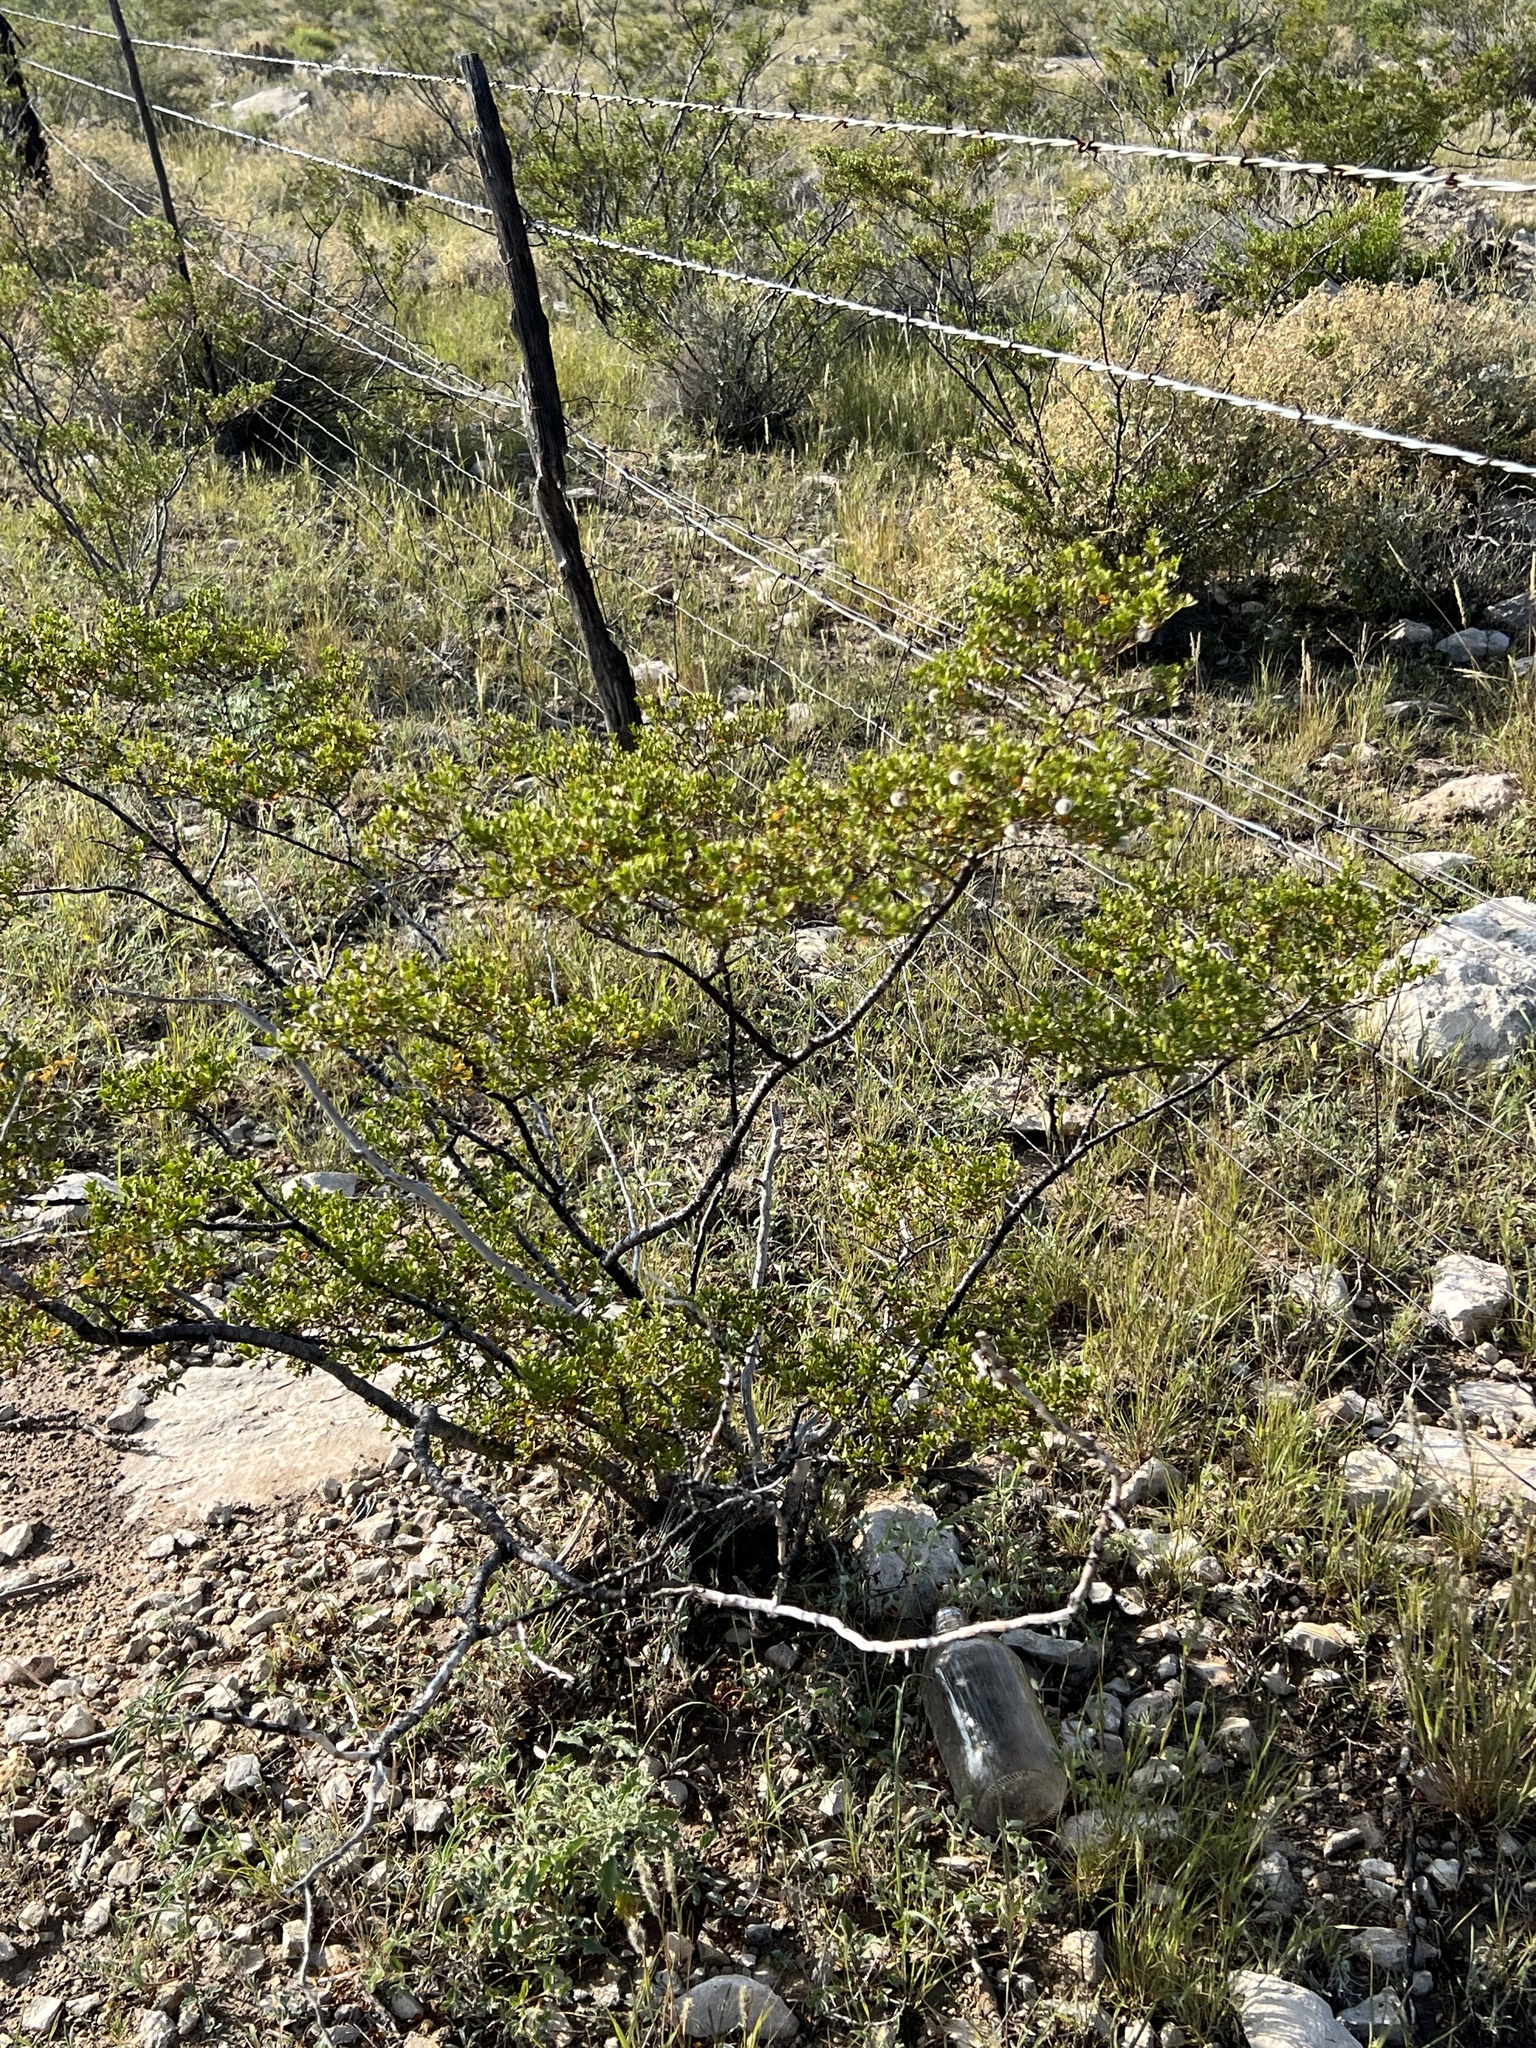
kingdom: Plantae
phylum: Tracheophyta
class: Magnoliopsida
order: Zygophyllales
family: Zygophyllaceae
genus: Larrea
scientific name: Larrea tridentata
